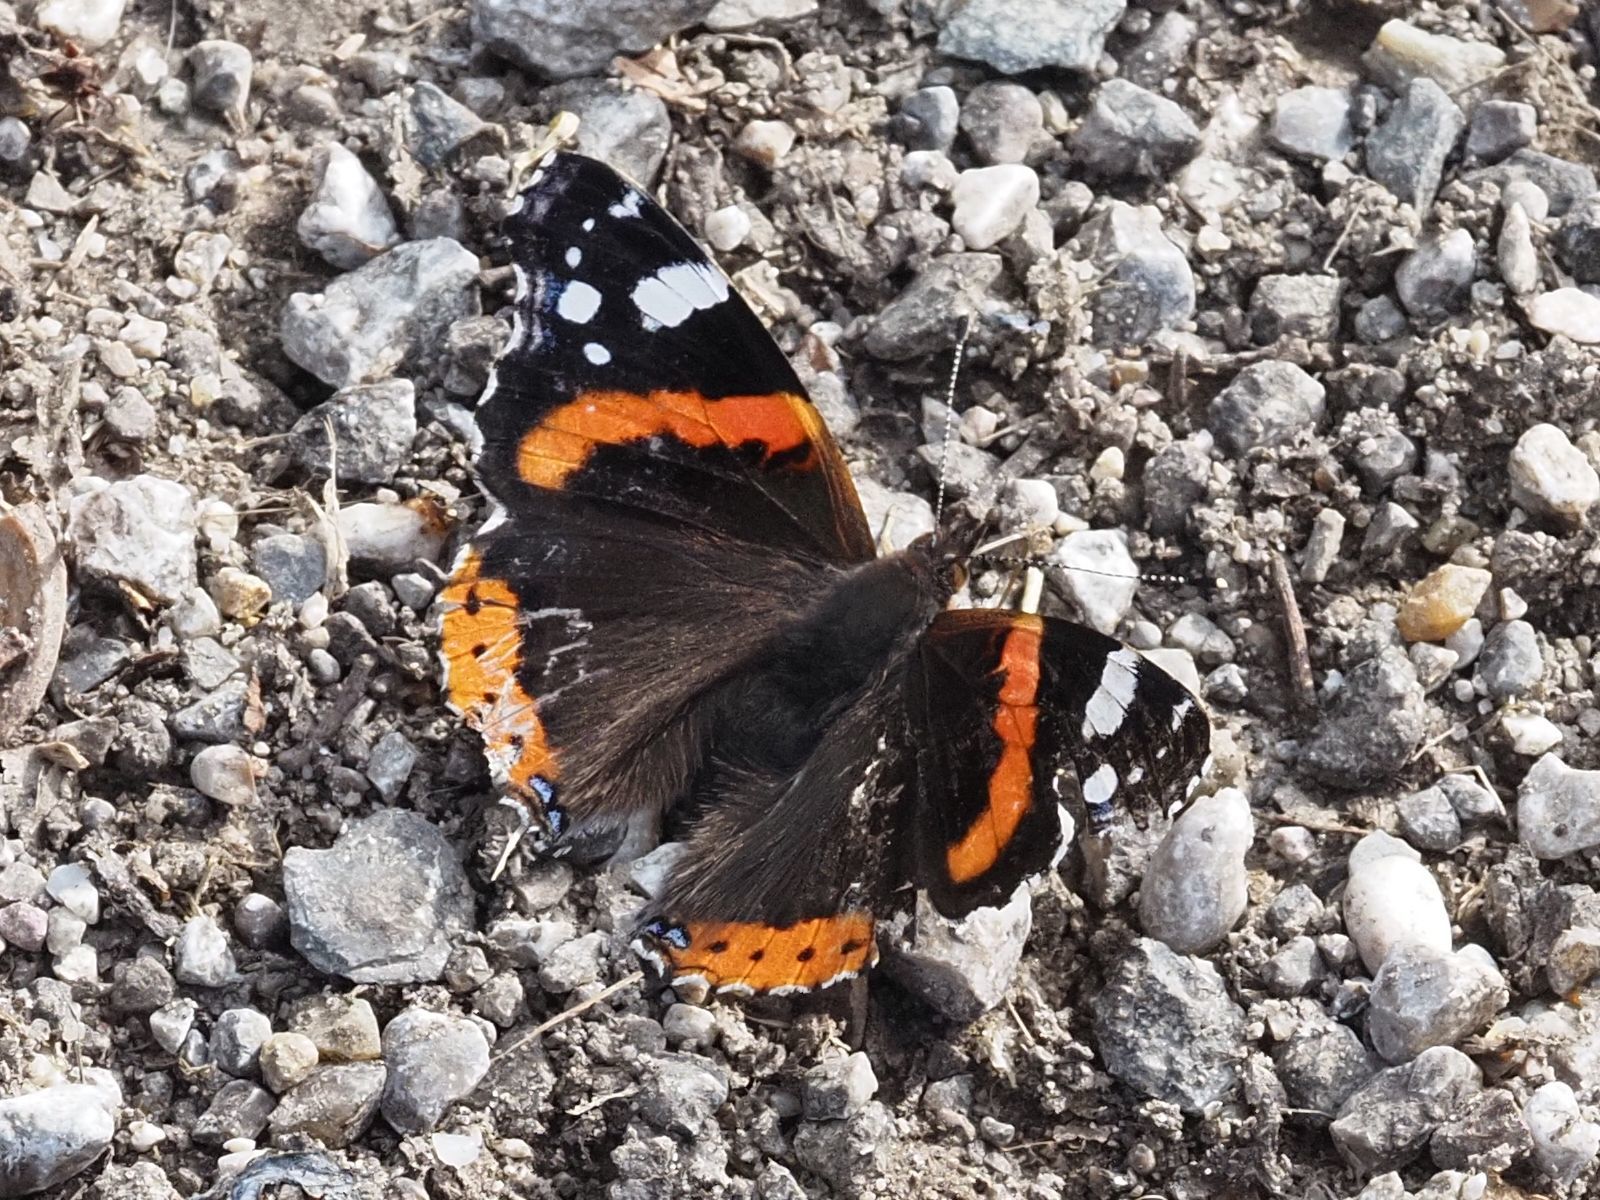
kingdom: Animalia
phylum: Arthropoda
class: Insecta
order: Lepidoptera
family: Nymphalidae
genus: Vanessa
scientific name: Vanessa atalanta
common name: Red admiral
